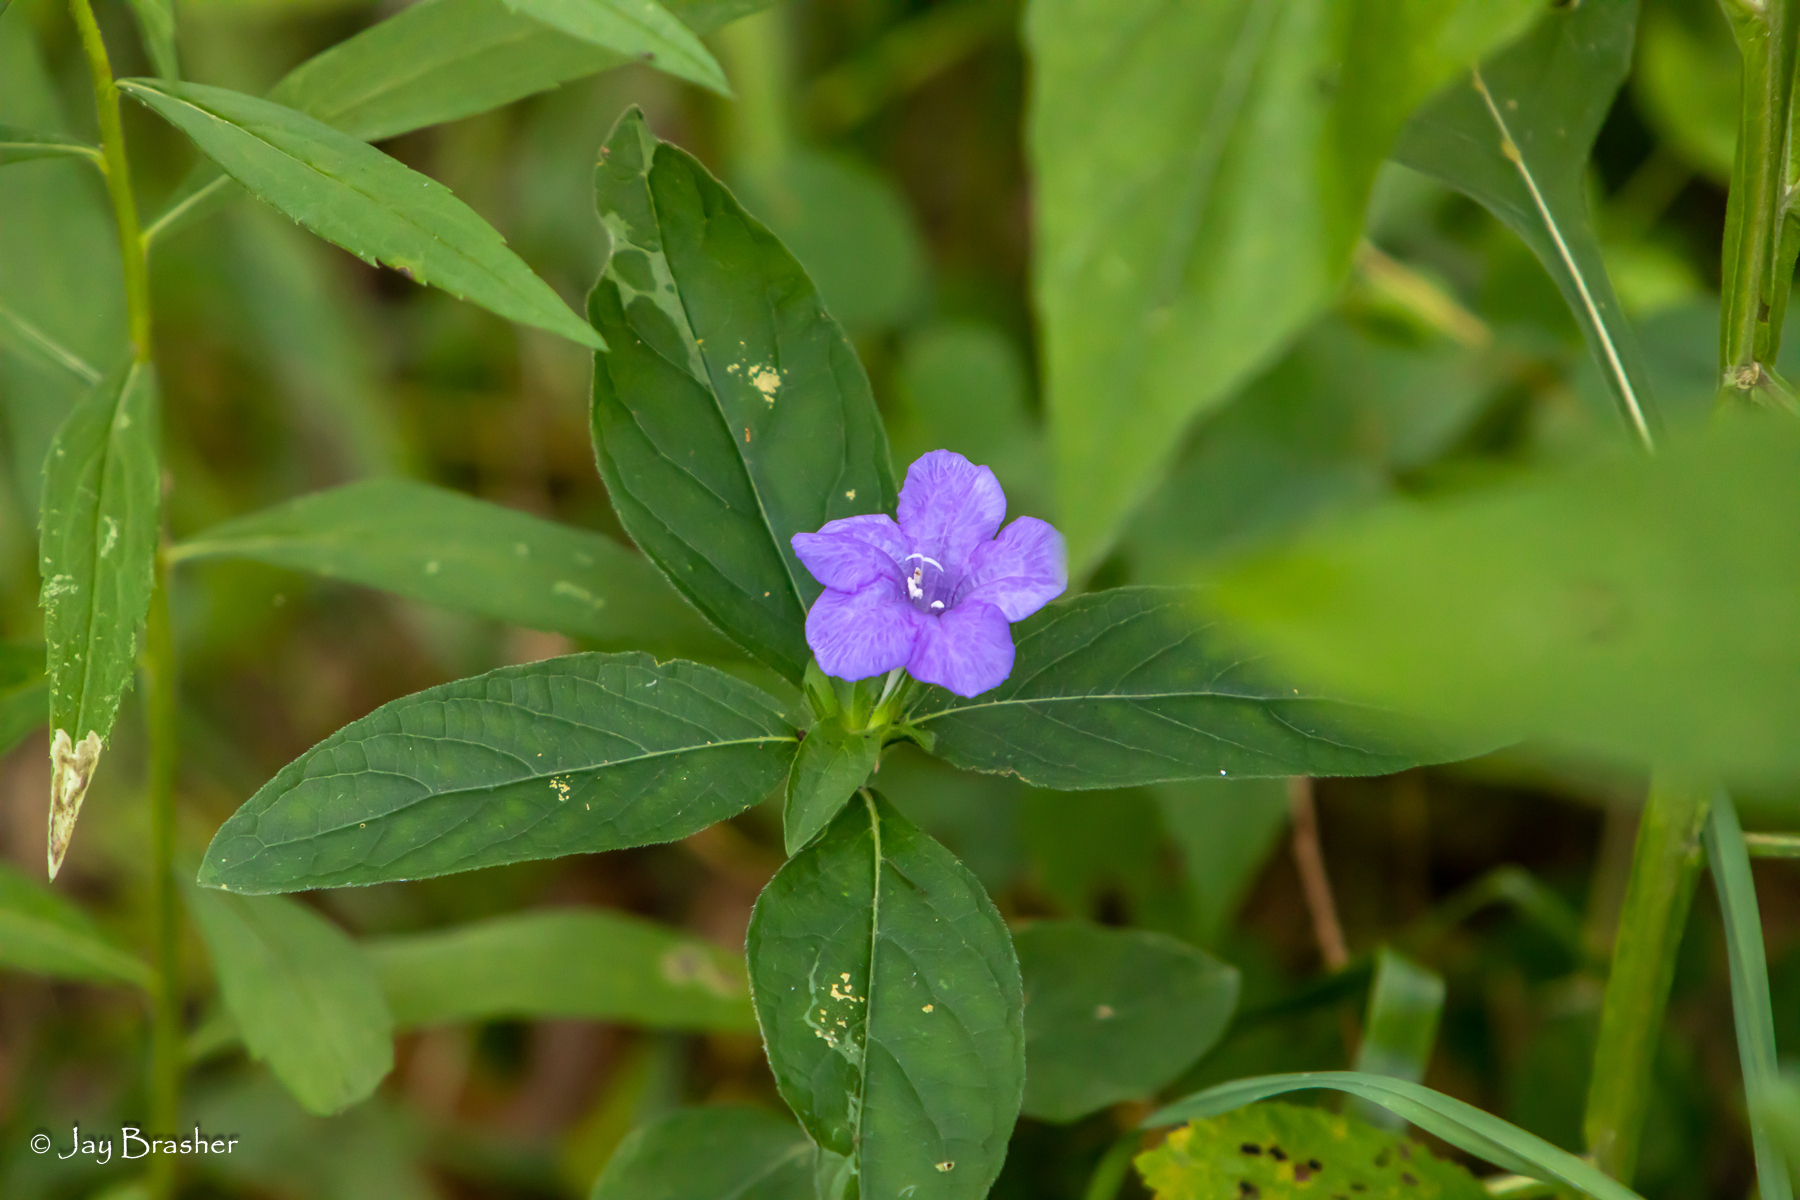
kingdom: Plantae
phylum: Tracheophyta
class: Magnoliopsida
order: Lamiales
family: Acanthaceae
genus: Ruellia
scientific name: Ruellia caroliniensis
